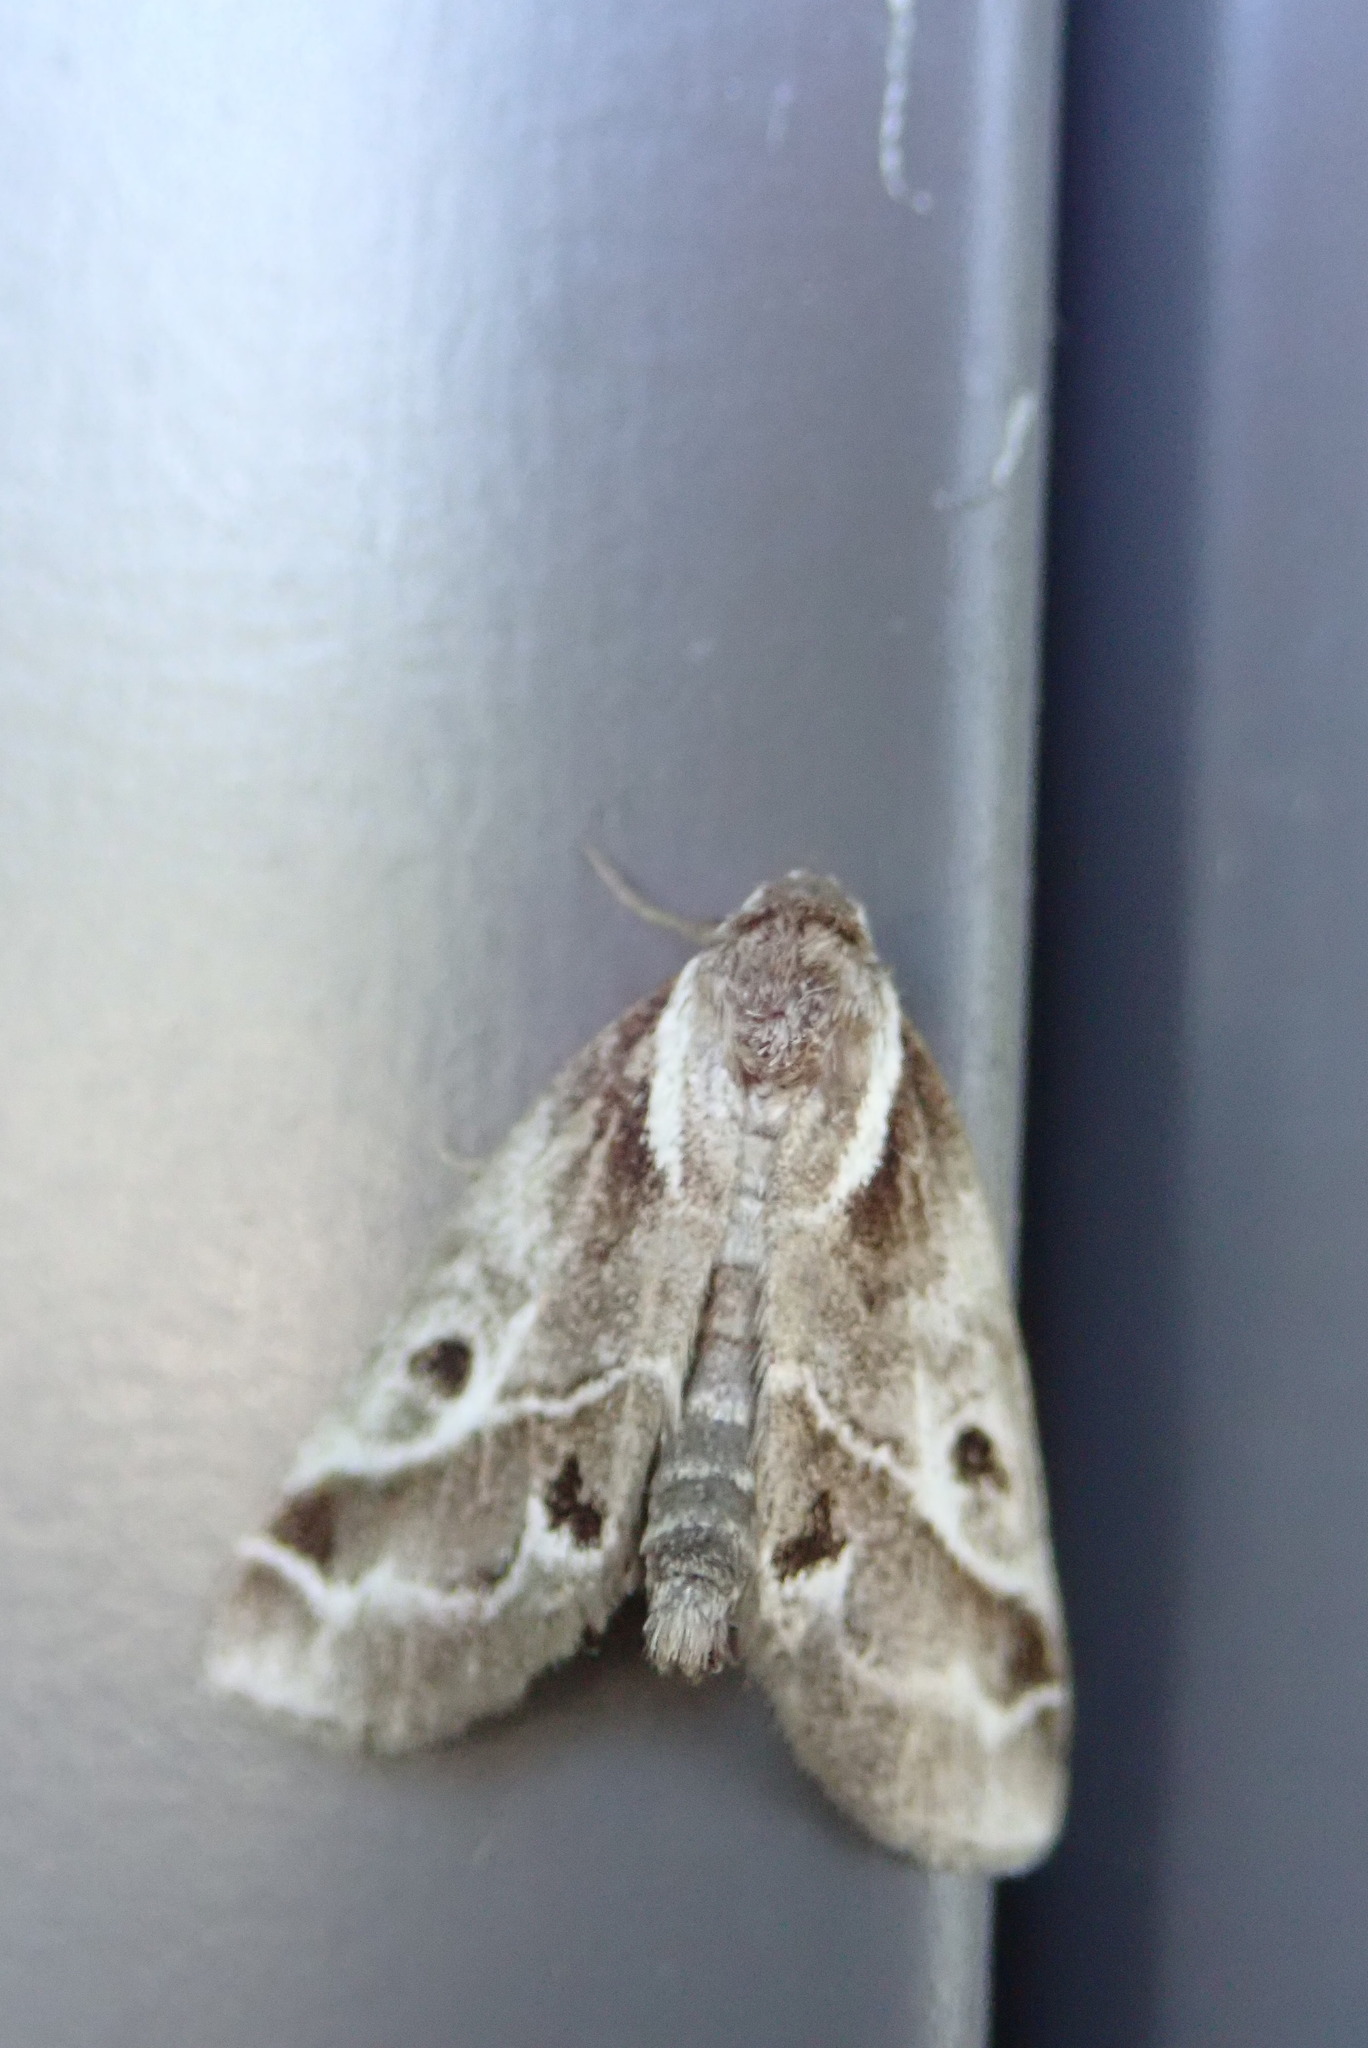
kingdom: Animalia
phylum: Arthropoda
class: Insecta
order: Lepidoptera
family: Nolidae
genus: Baileya
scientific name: Baileya doubledayi
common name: Doubleday's baileya moth
